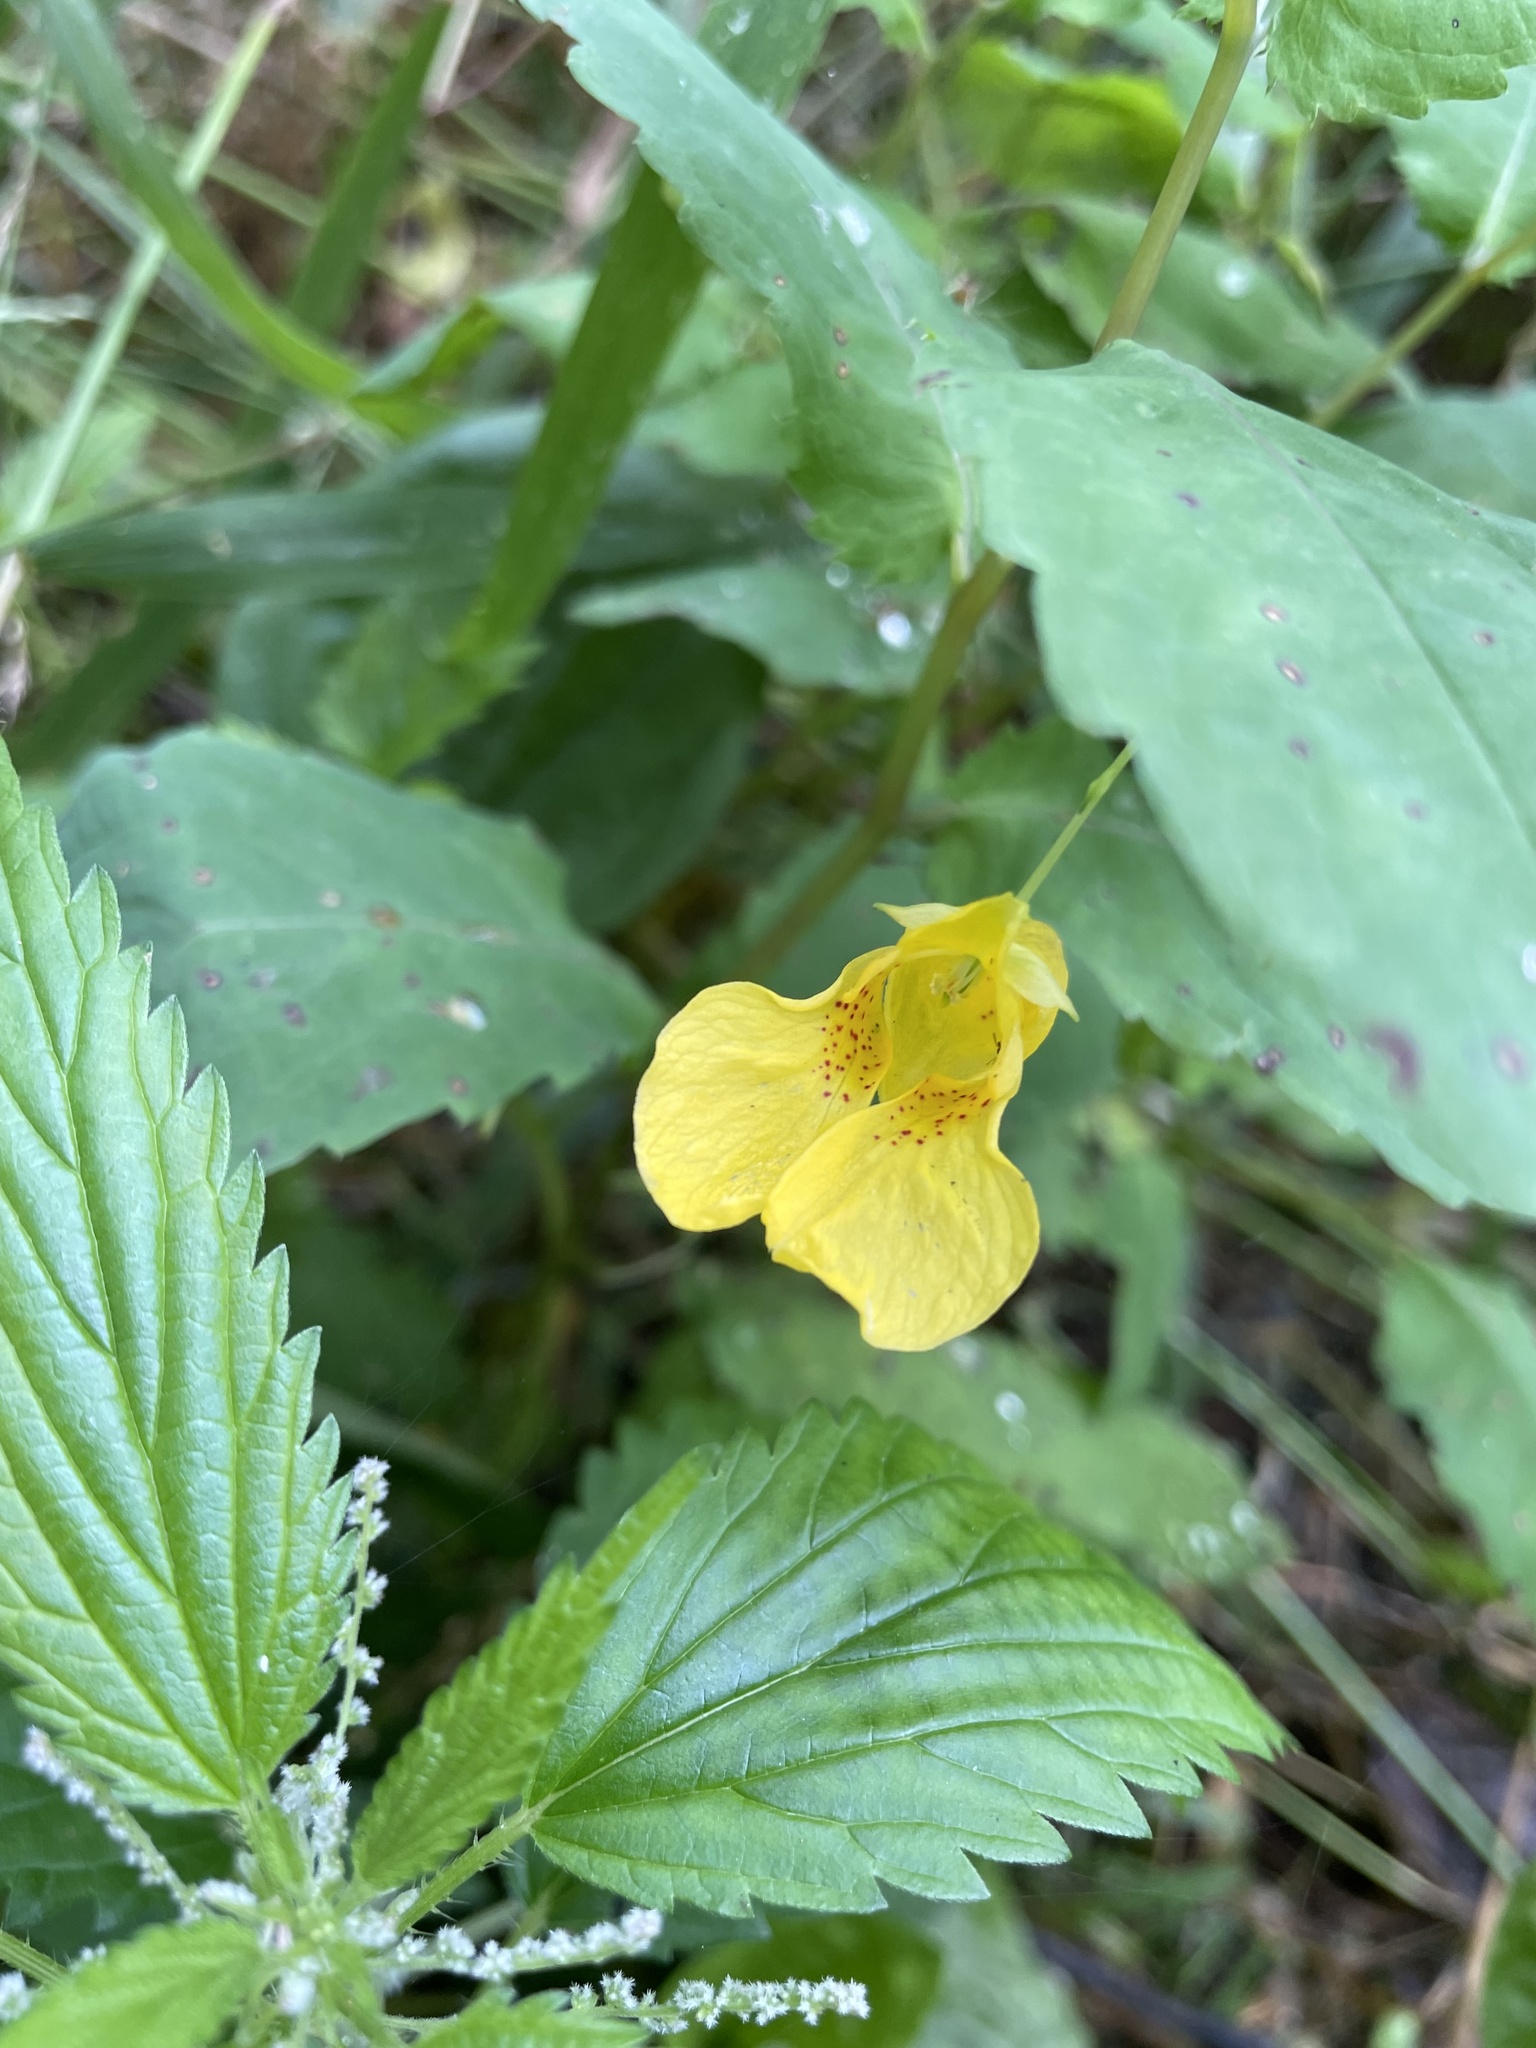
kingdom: Plantae
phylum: Tracheophyta
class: Magnoliopsida
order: Rosales
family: Urticaceae
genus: Urtica
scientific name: Urtica gracilis
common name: Slender stinging nettle
